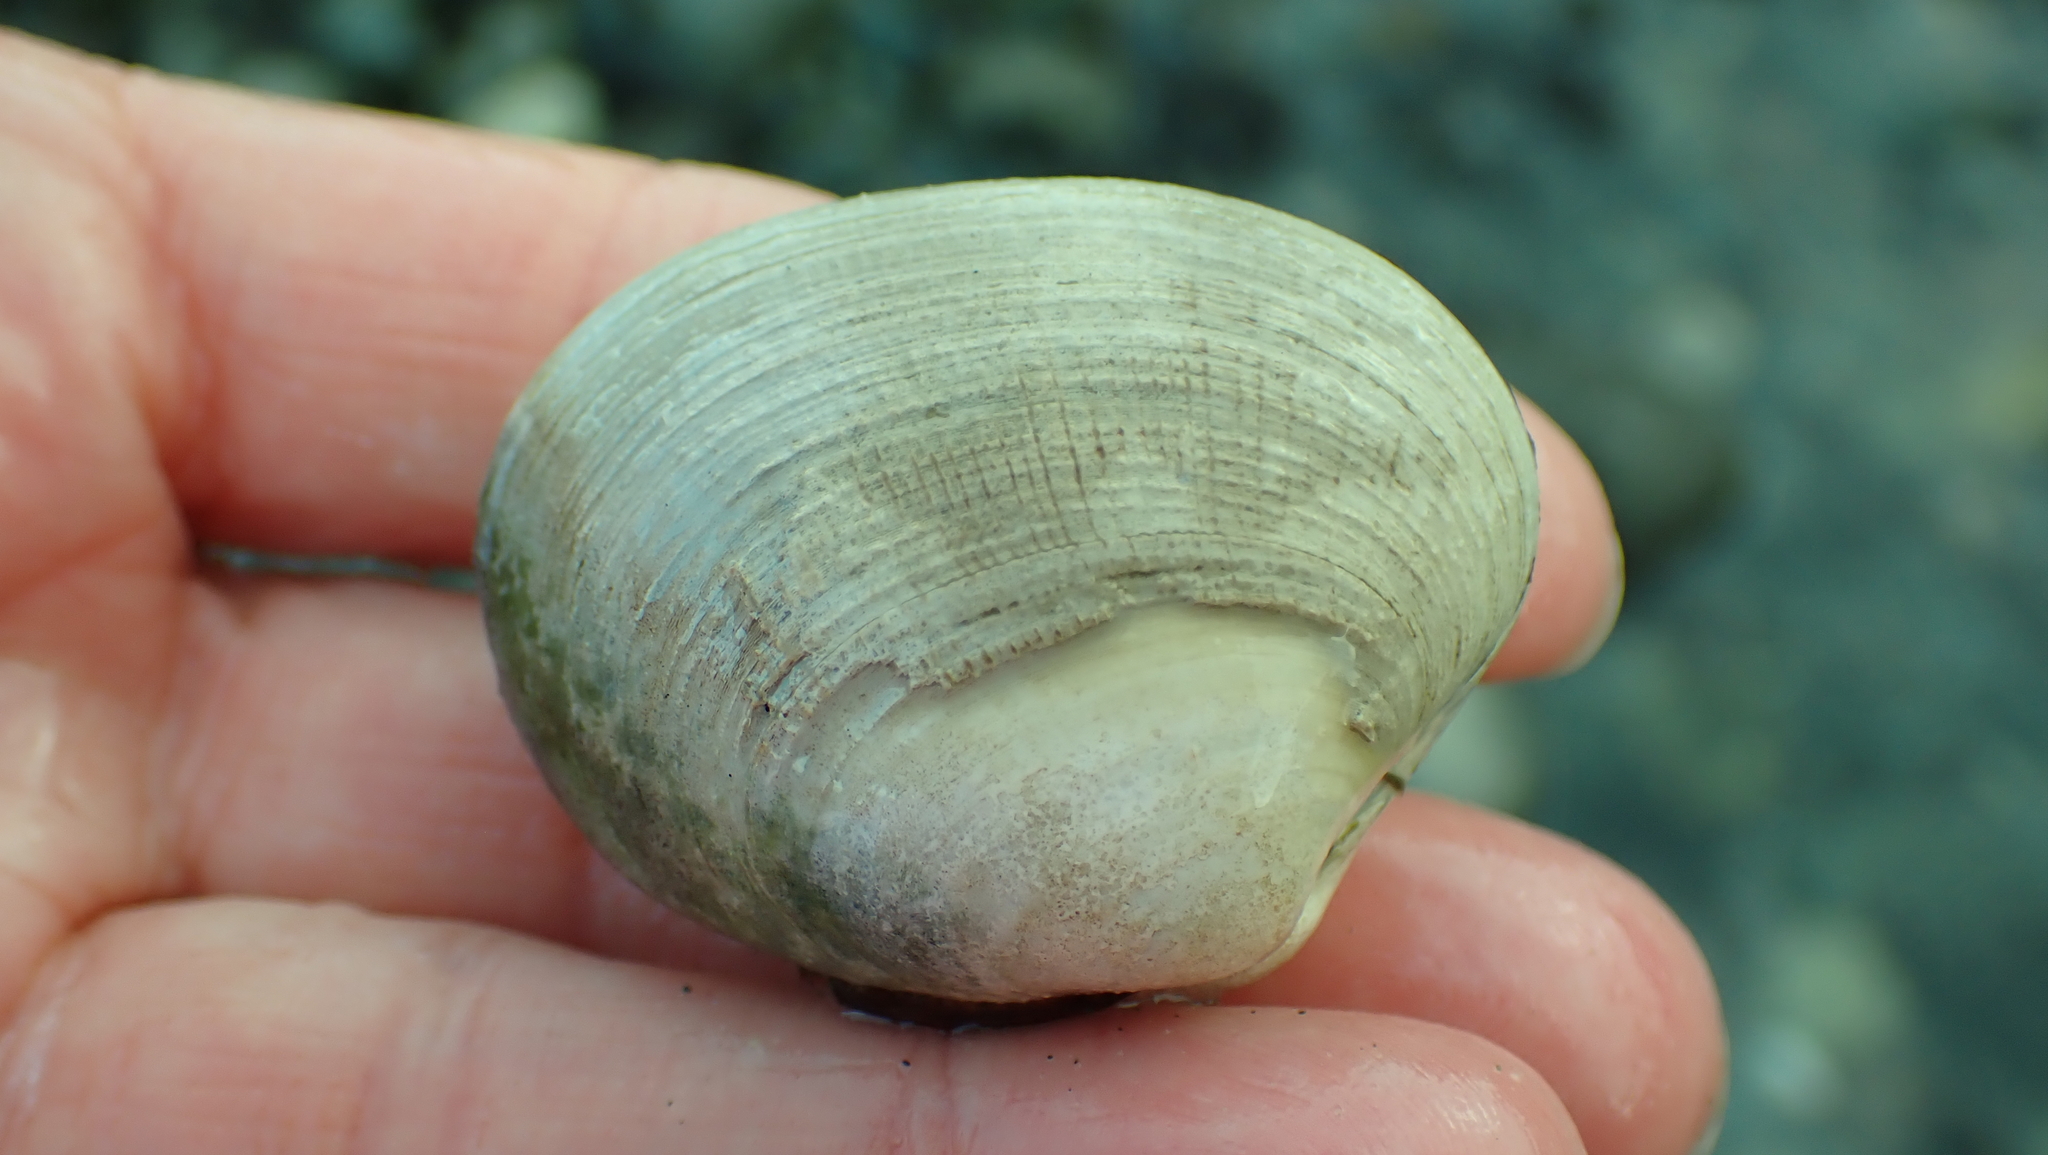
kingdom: Animalia
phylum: Mollusca
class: Bivalvia
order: Venerida
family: Veneridae
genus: Ruditapes
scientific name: Ruditapes philippinarum
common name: Manila clam
